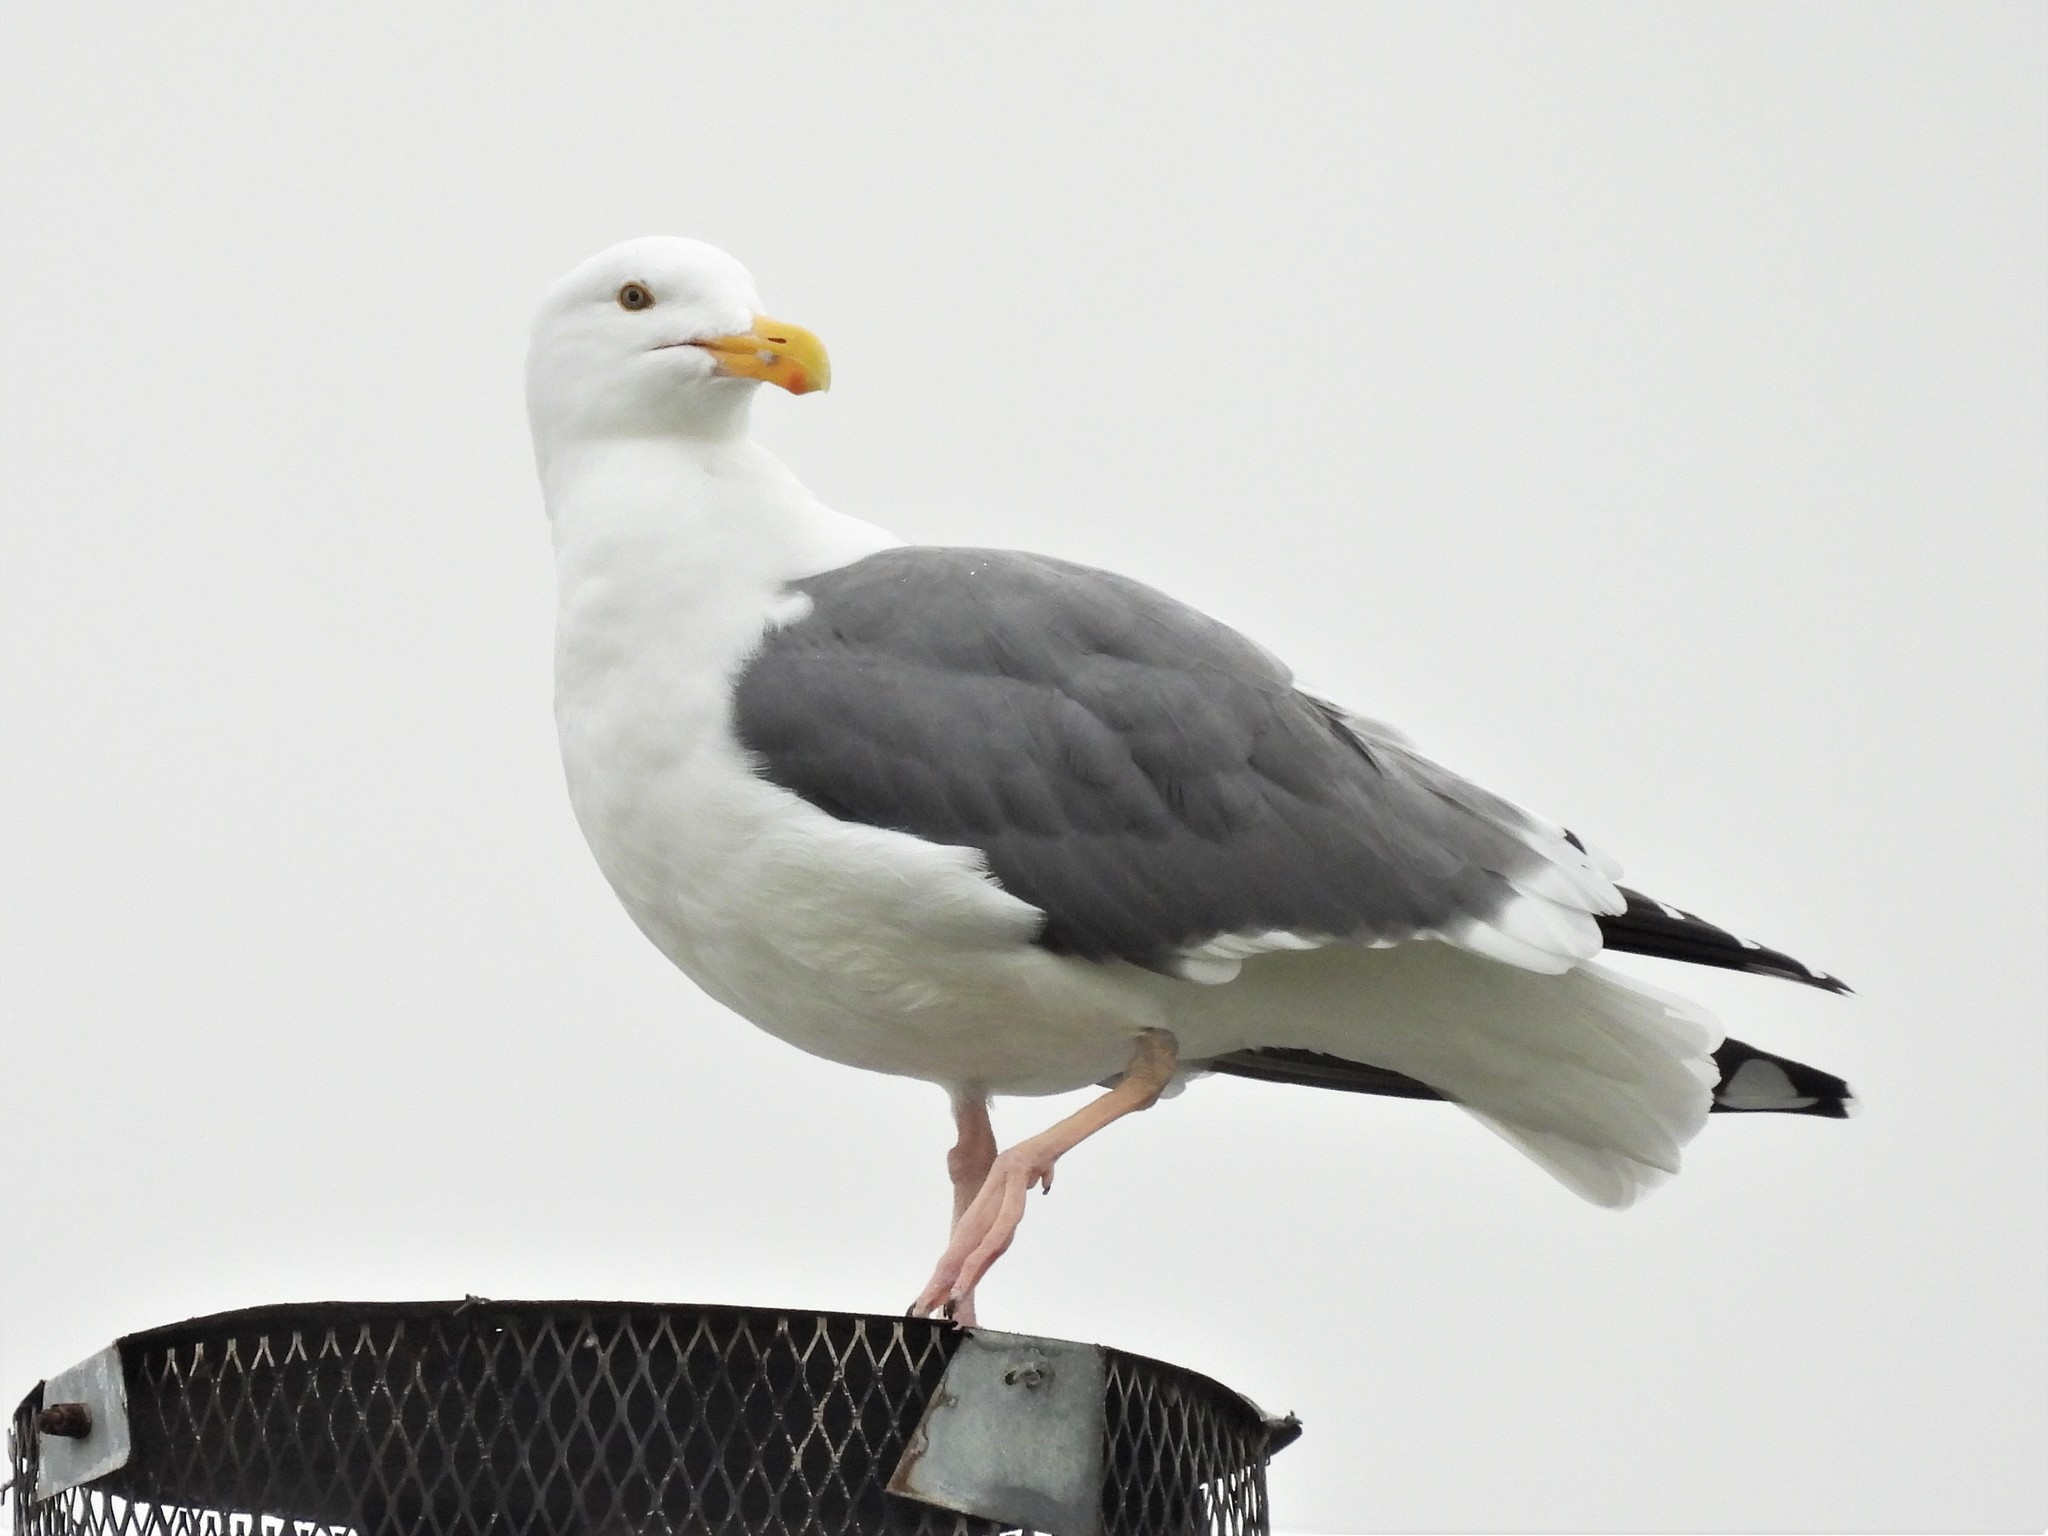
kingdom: Animalia
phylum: Chordata
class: Aves
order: Charadriiformes
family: Laridae
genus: Larus
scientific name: Larus occidentalis
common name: Western gull
